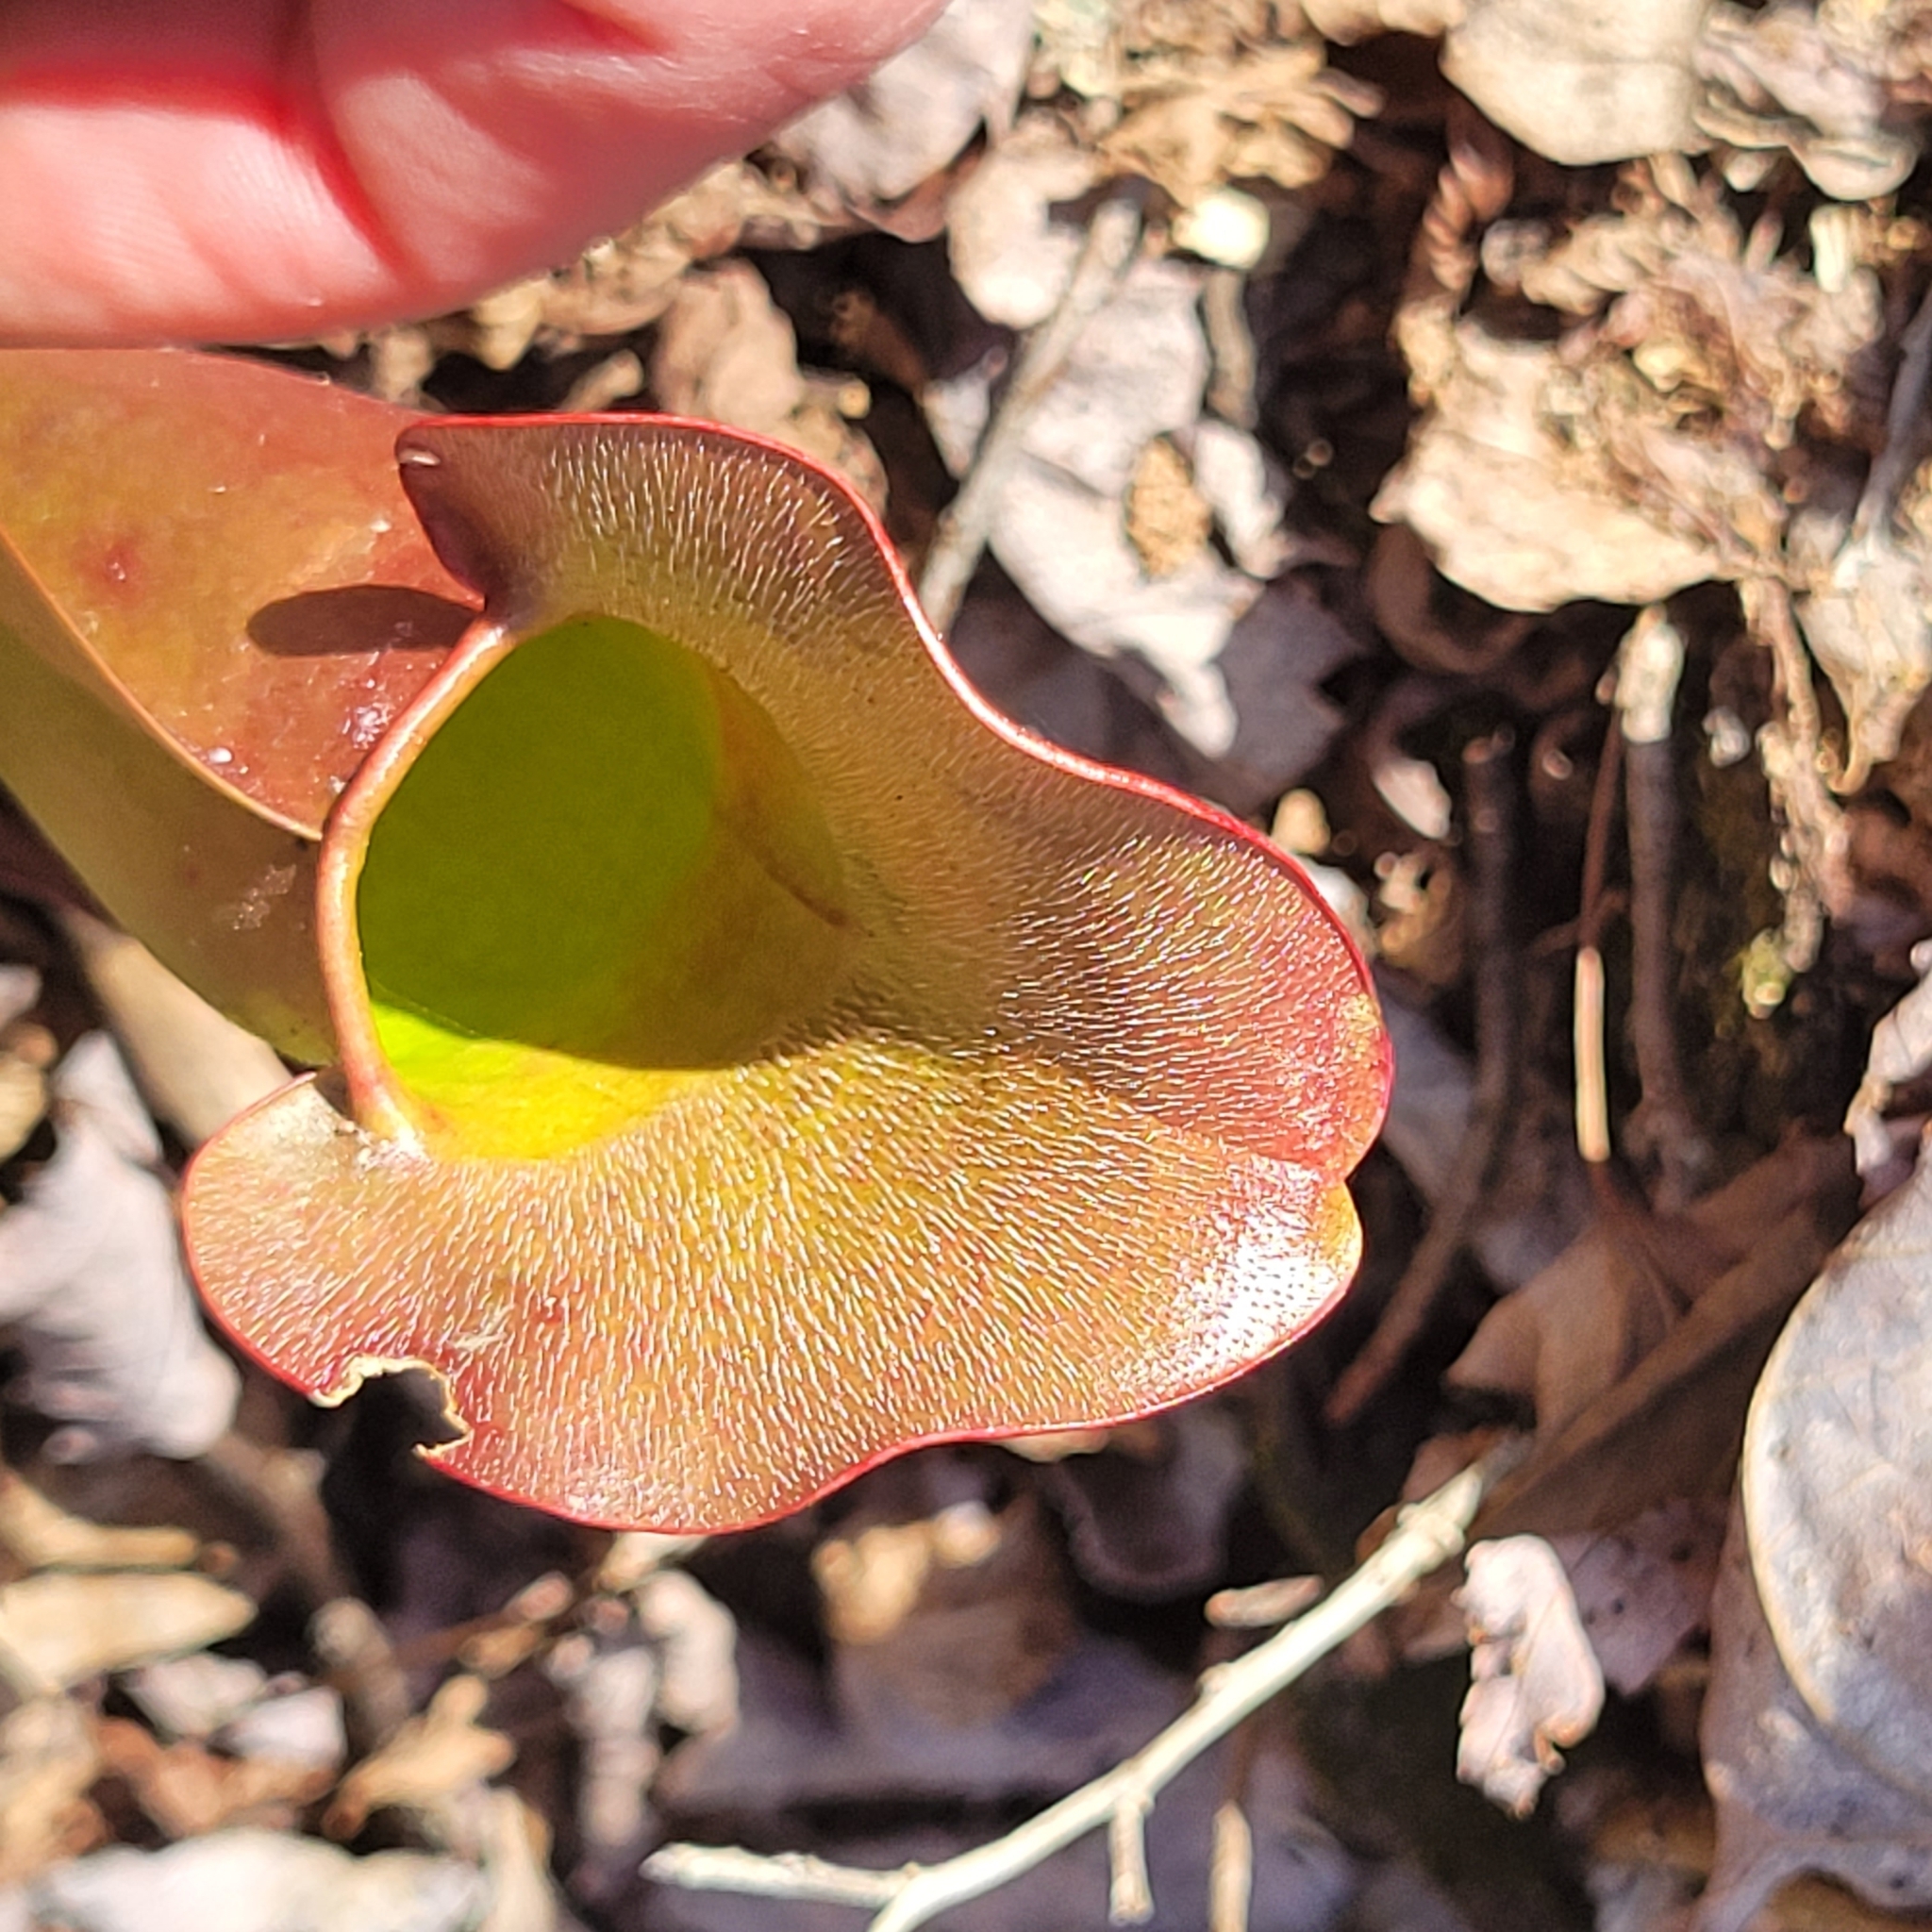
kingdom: Plantae
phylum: Tracheophyta
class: Magnoliopsida
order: Ericales
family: Sarraceniaceae
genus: Sarracenia
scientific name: Sarracenia purpurea
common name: Pitcherplant
